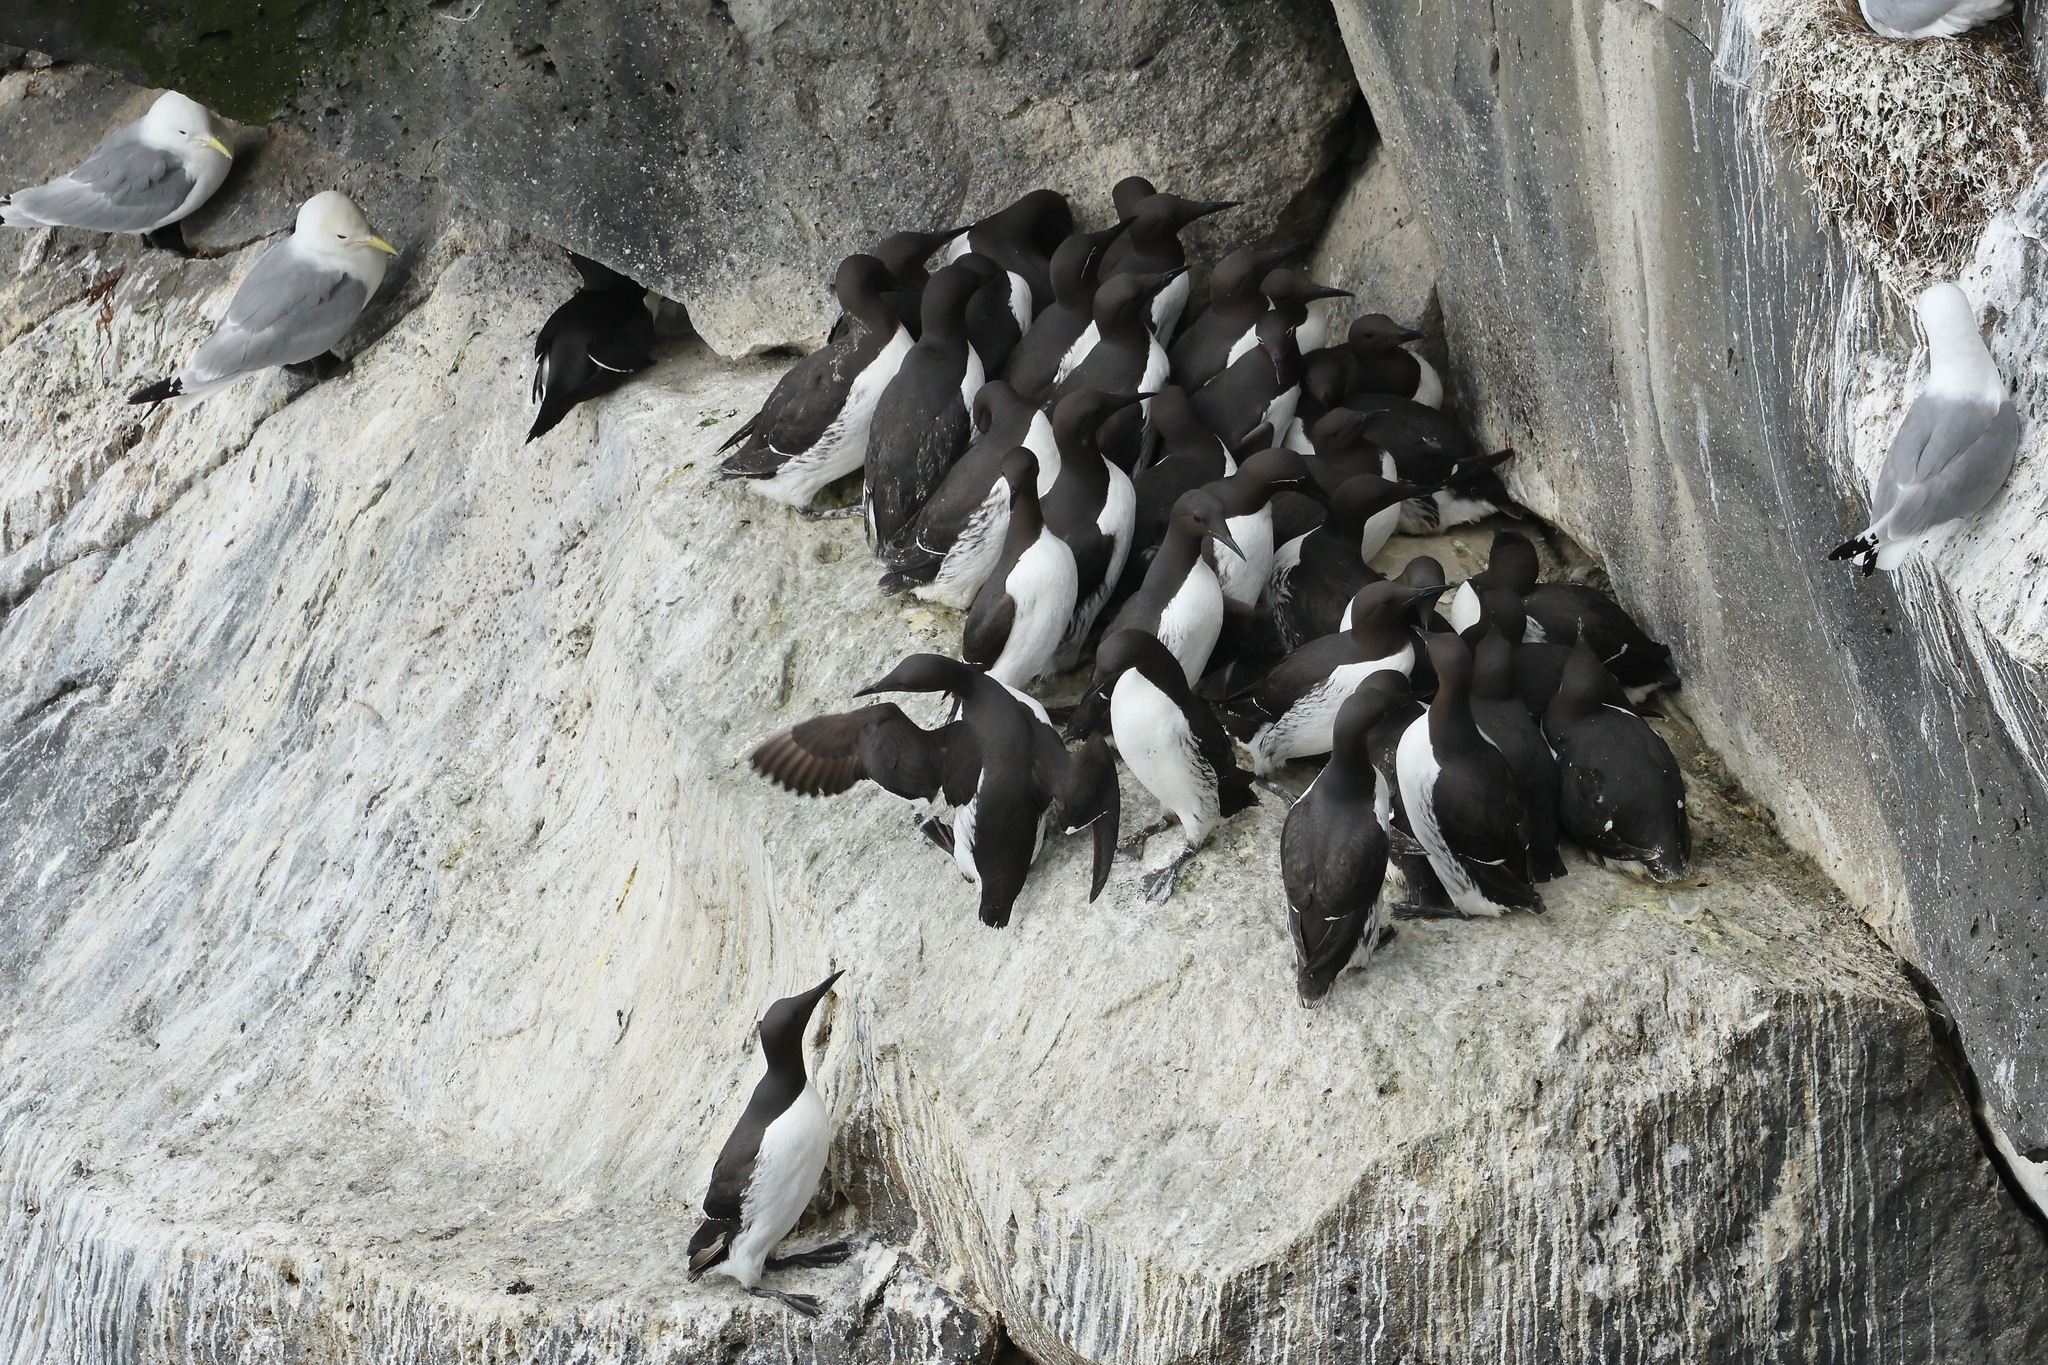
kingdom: Animalia
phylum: Chordata
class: Aves
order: Charadriiformes
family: Alcidae
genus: Uria
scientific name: Uria aalge
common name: Common murre
